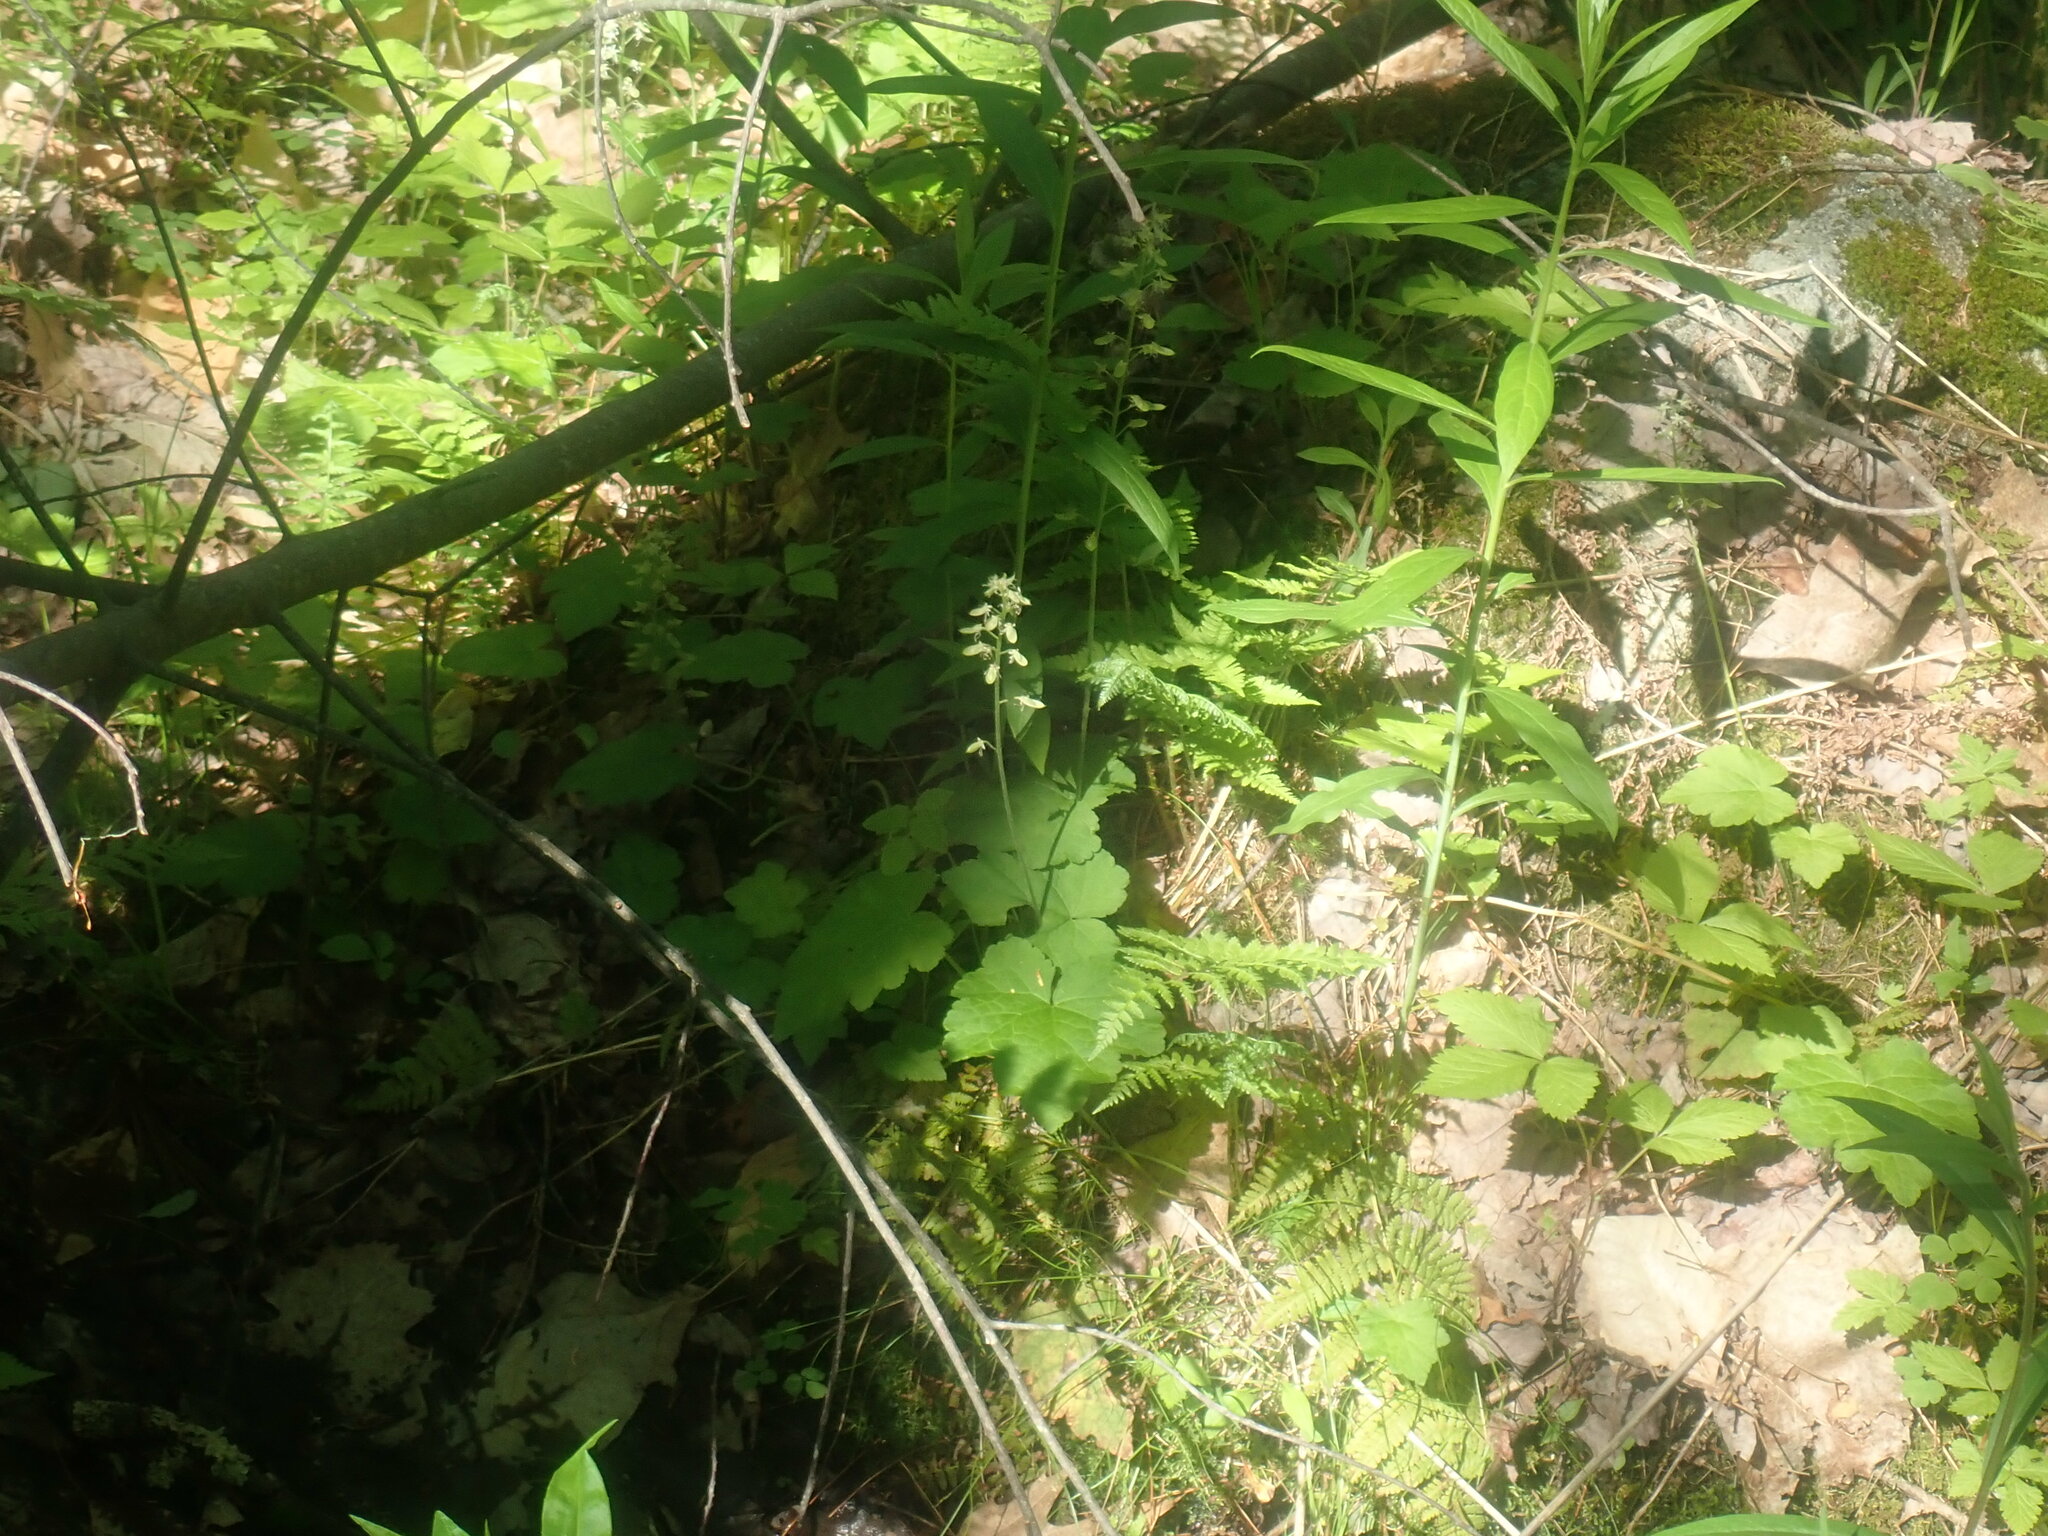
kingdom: Plantae
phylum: Tracheophyta
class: Magnoliopsida
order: Saxifragales
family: Saxifragaceae
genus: Tiarella
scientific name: Tiarella stolonifera
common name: Stoloniferous foamflower
